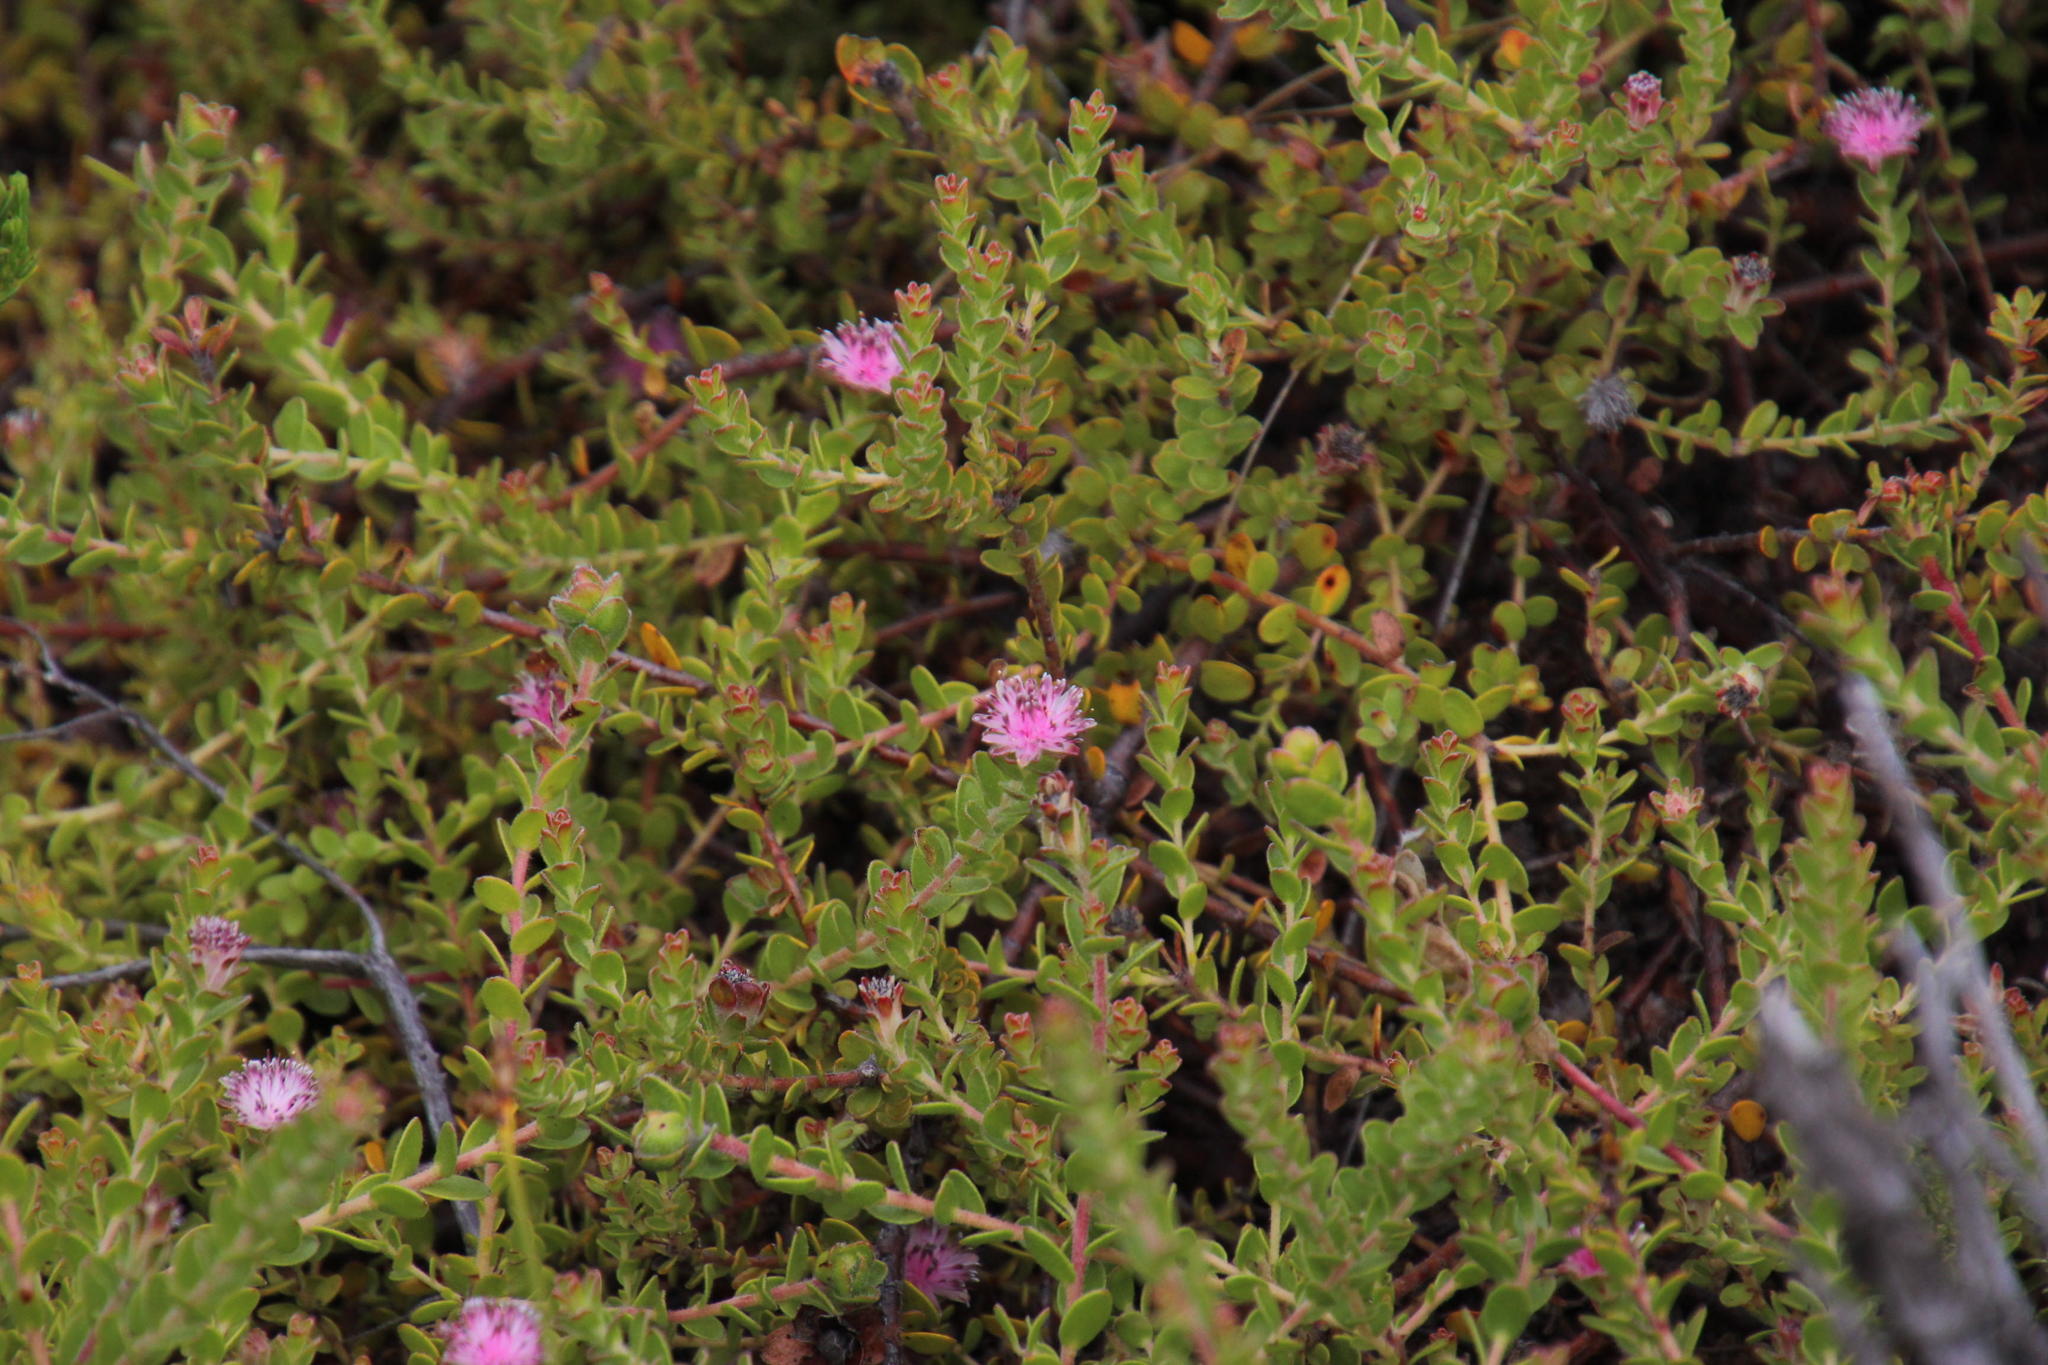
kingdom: Plantae
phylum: Tracheophyta
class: Magnoliopsida
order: Proteales
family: Proteaceae
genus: Diastella
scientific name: Diastella divaricata
